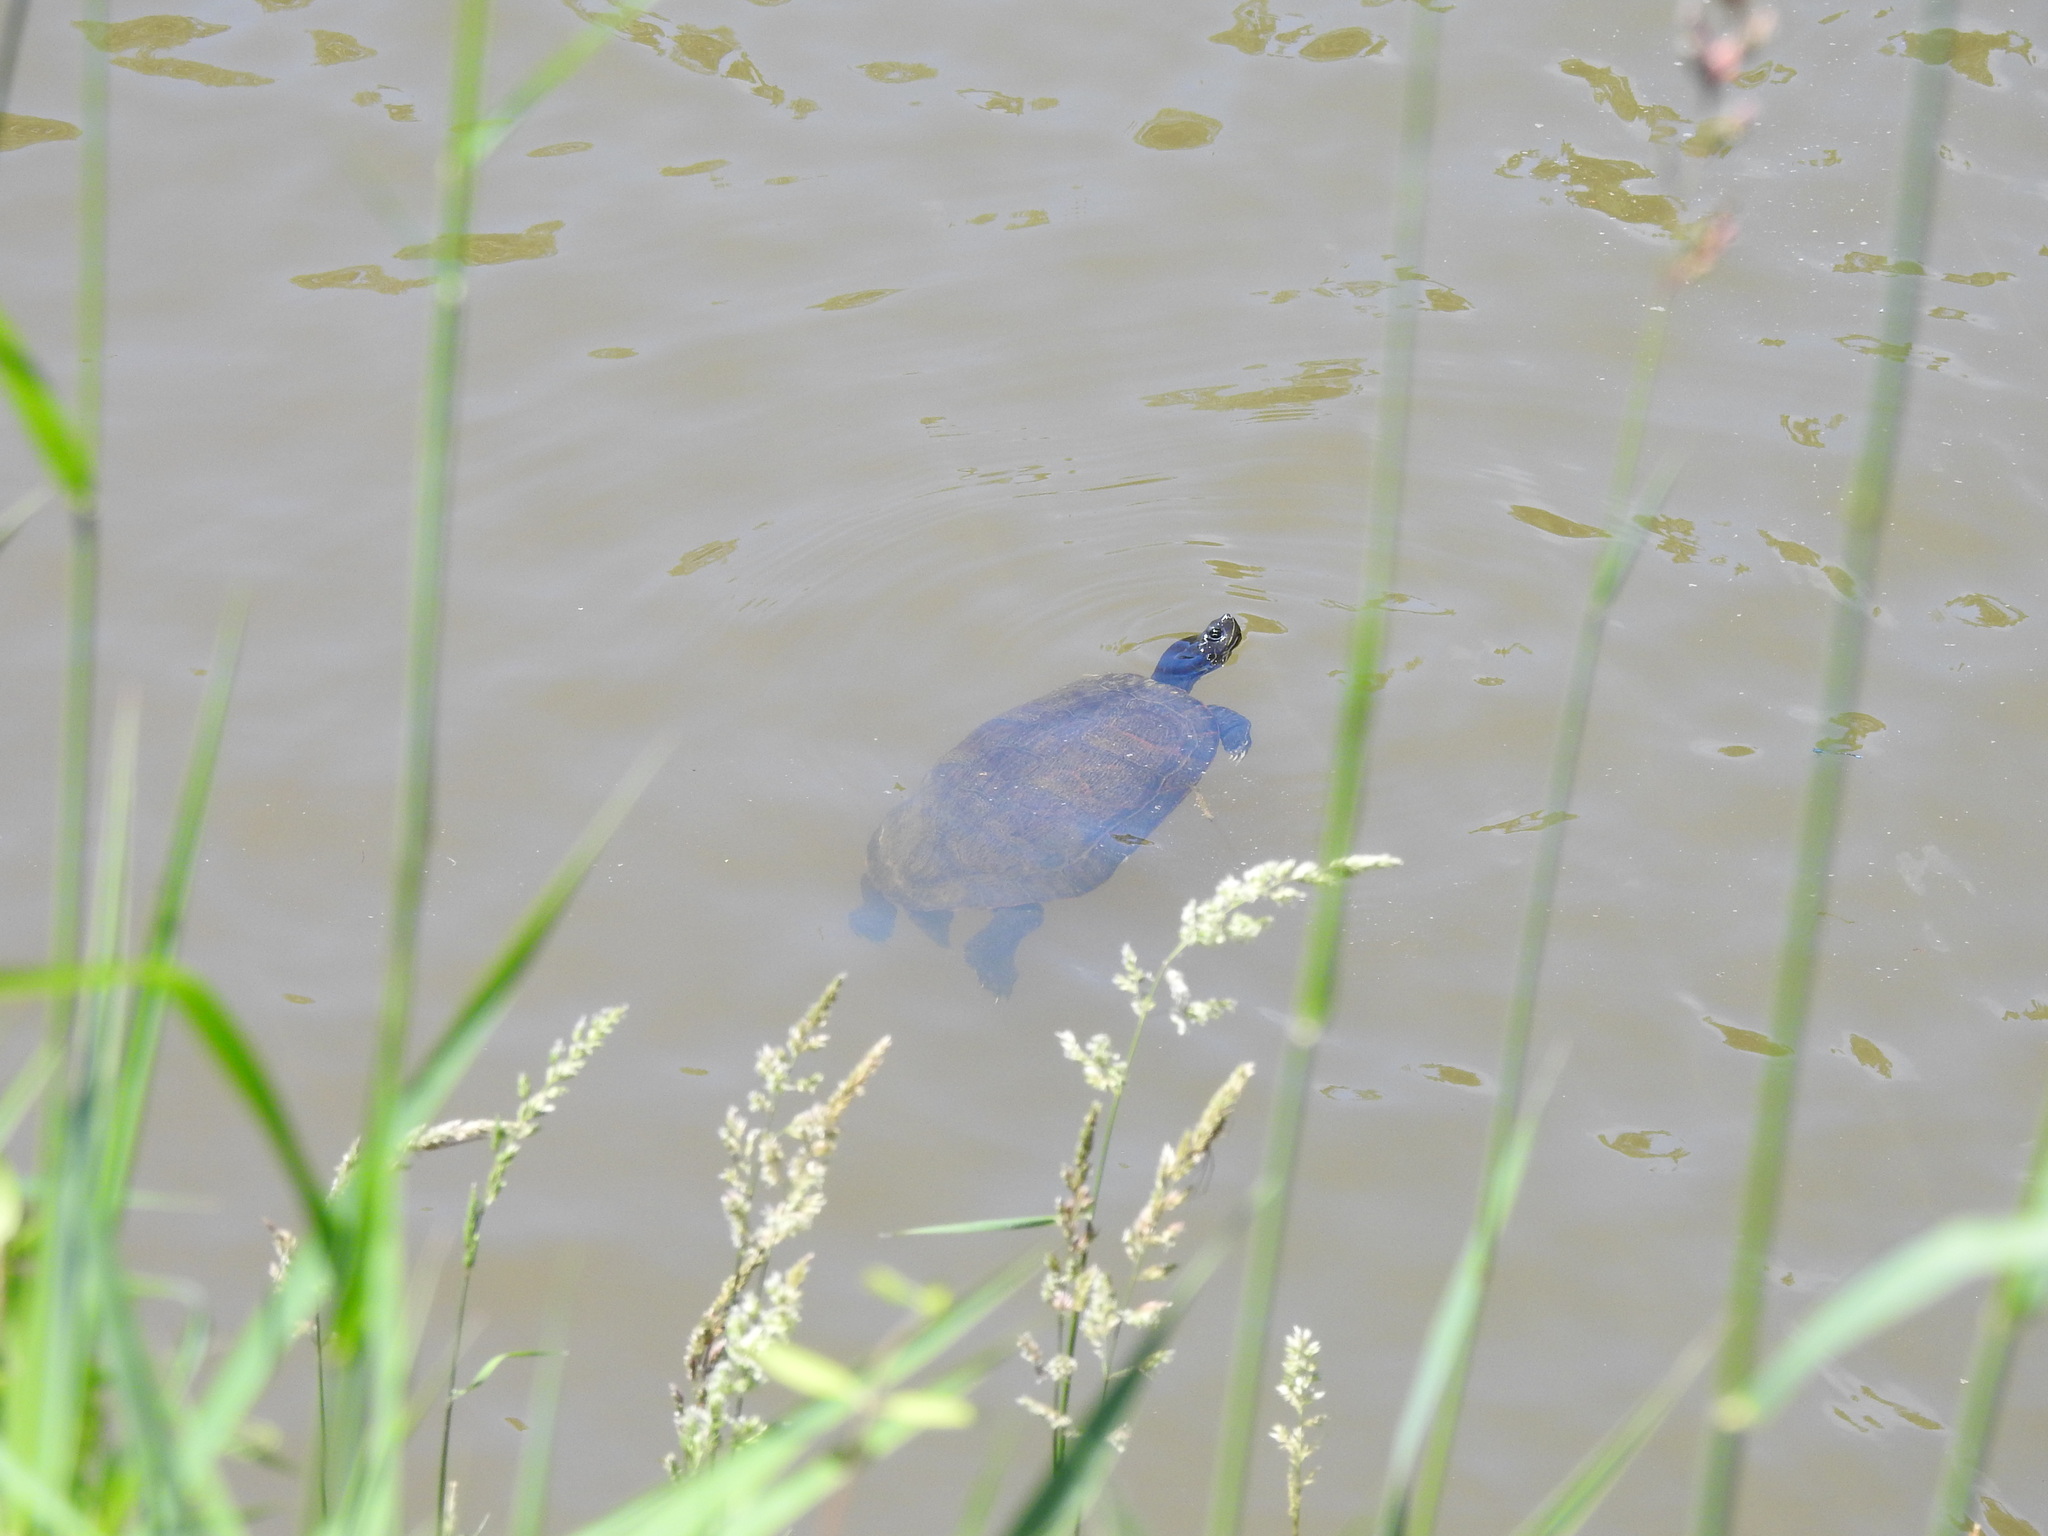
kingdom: Animalia
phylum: Chordata
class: Testudines
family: Emydidae
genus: Pseudemys
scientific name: Pseudemys rubriventris
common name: American red-bellied turtle
